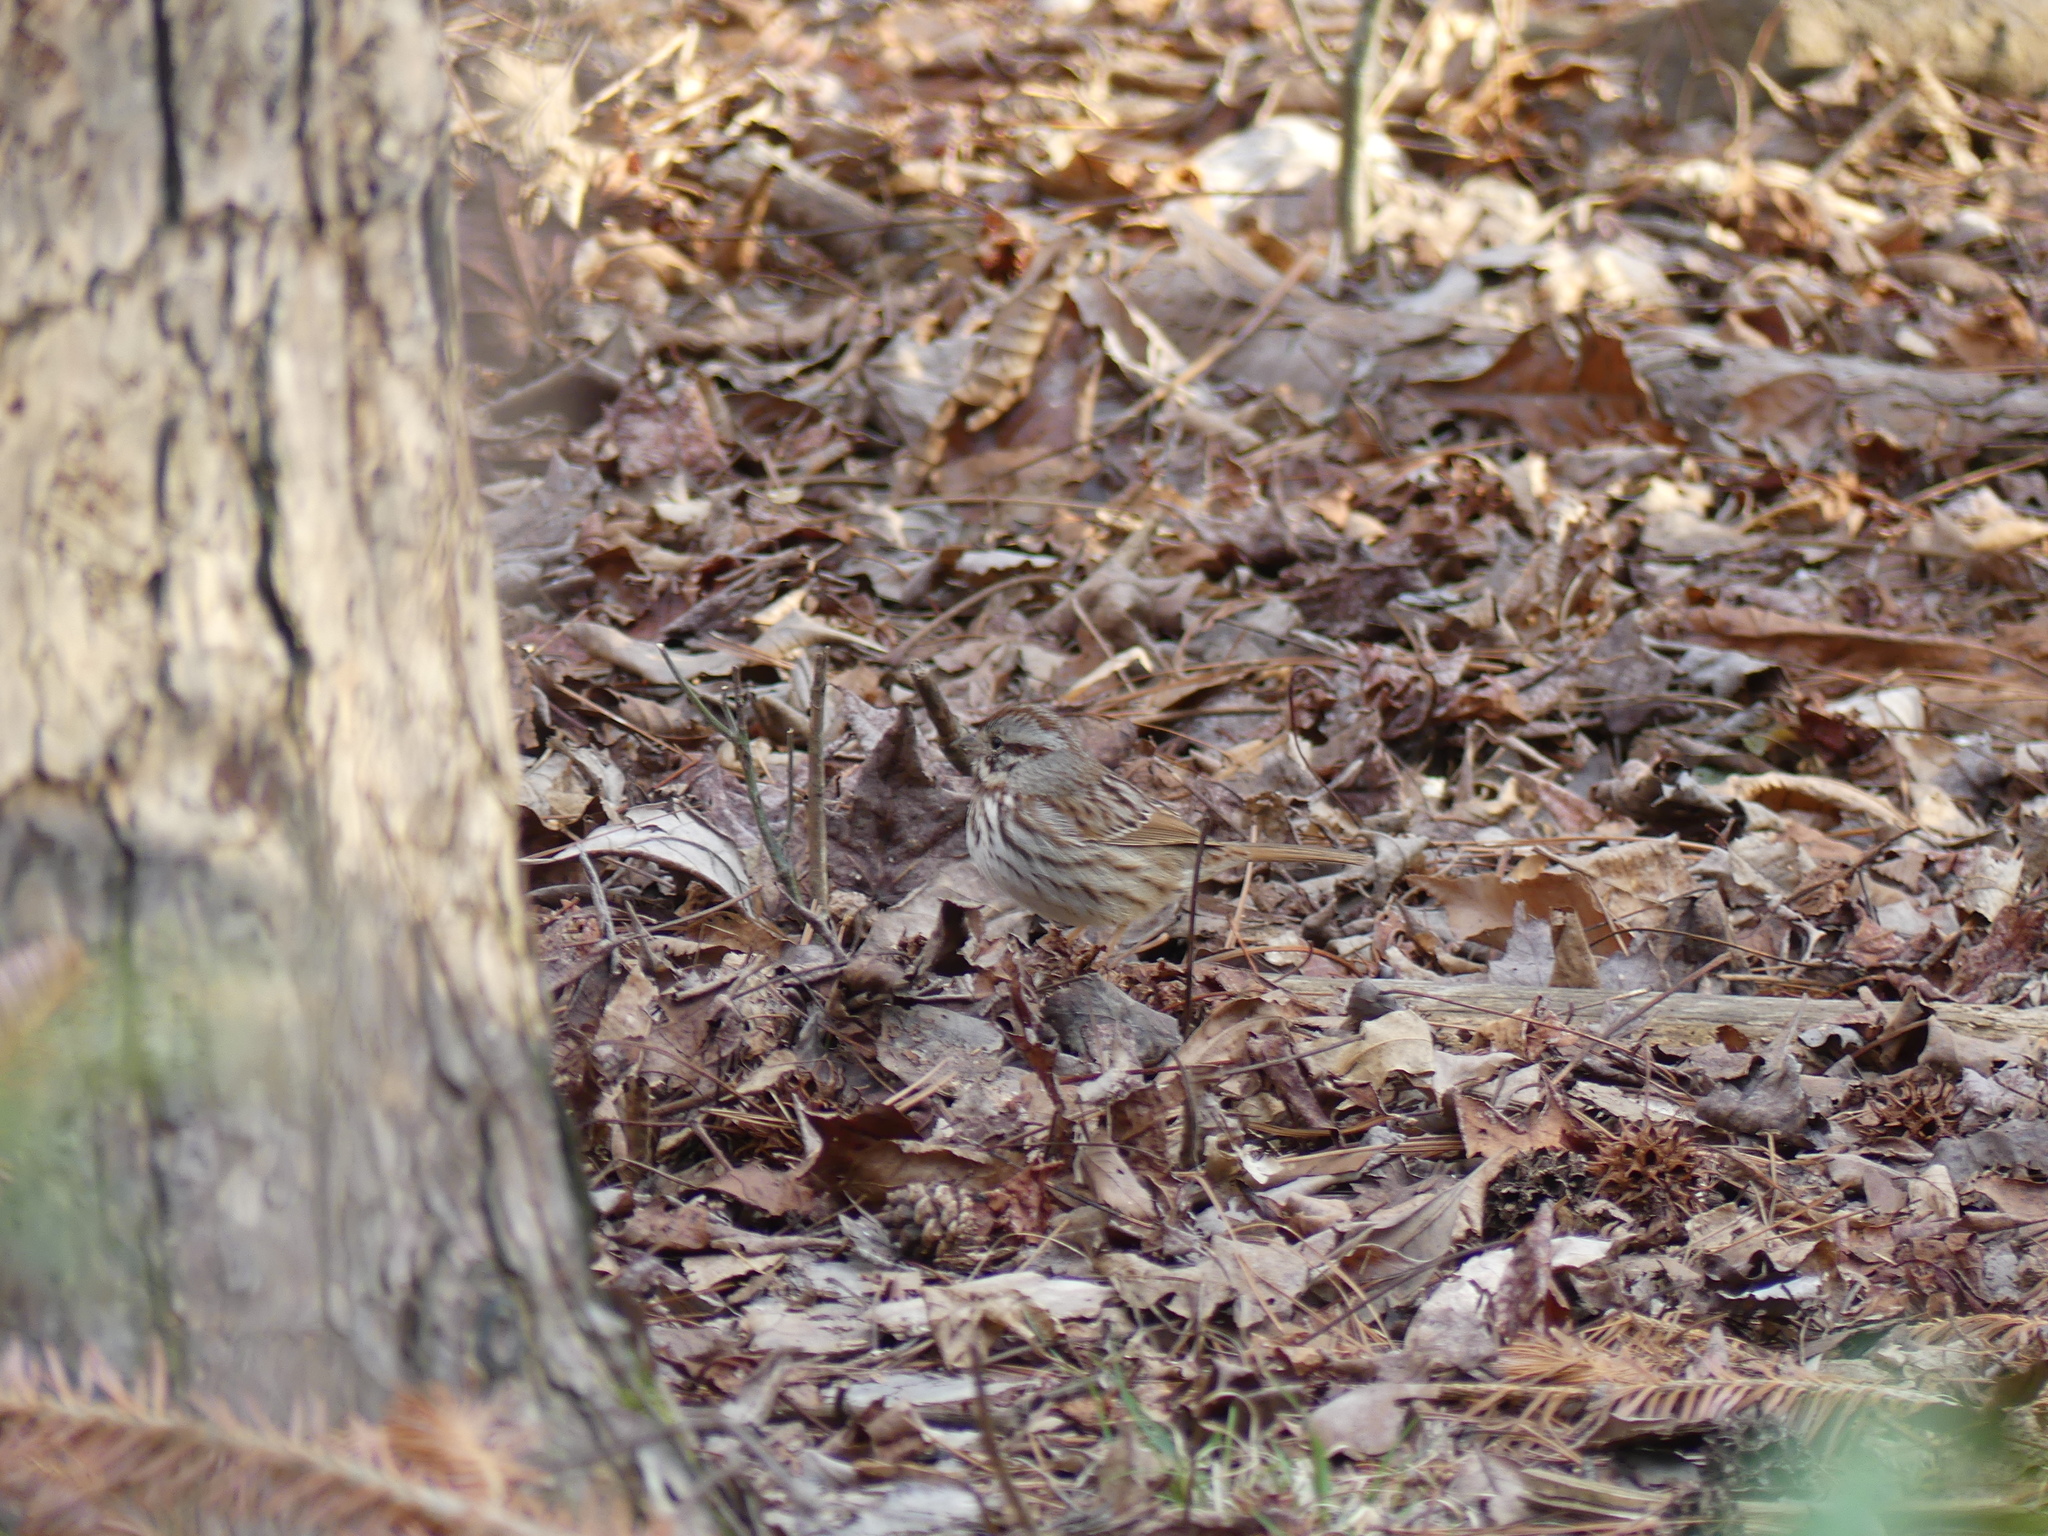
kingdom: Animalia
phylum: Chordata
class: Aves
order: Passeriformes
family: Passerellidae
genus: Melospiza
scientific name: Melospiza melodia
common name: Song sparrow
